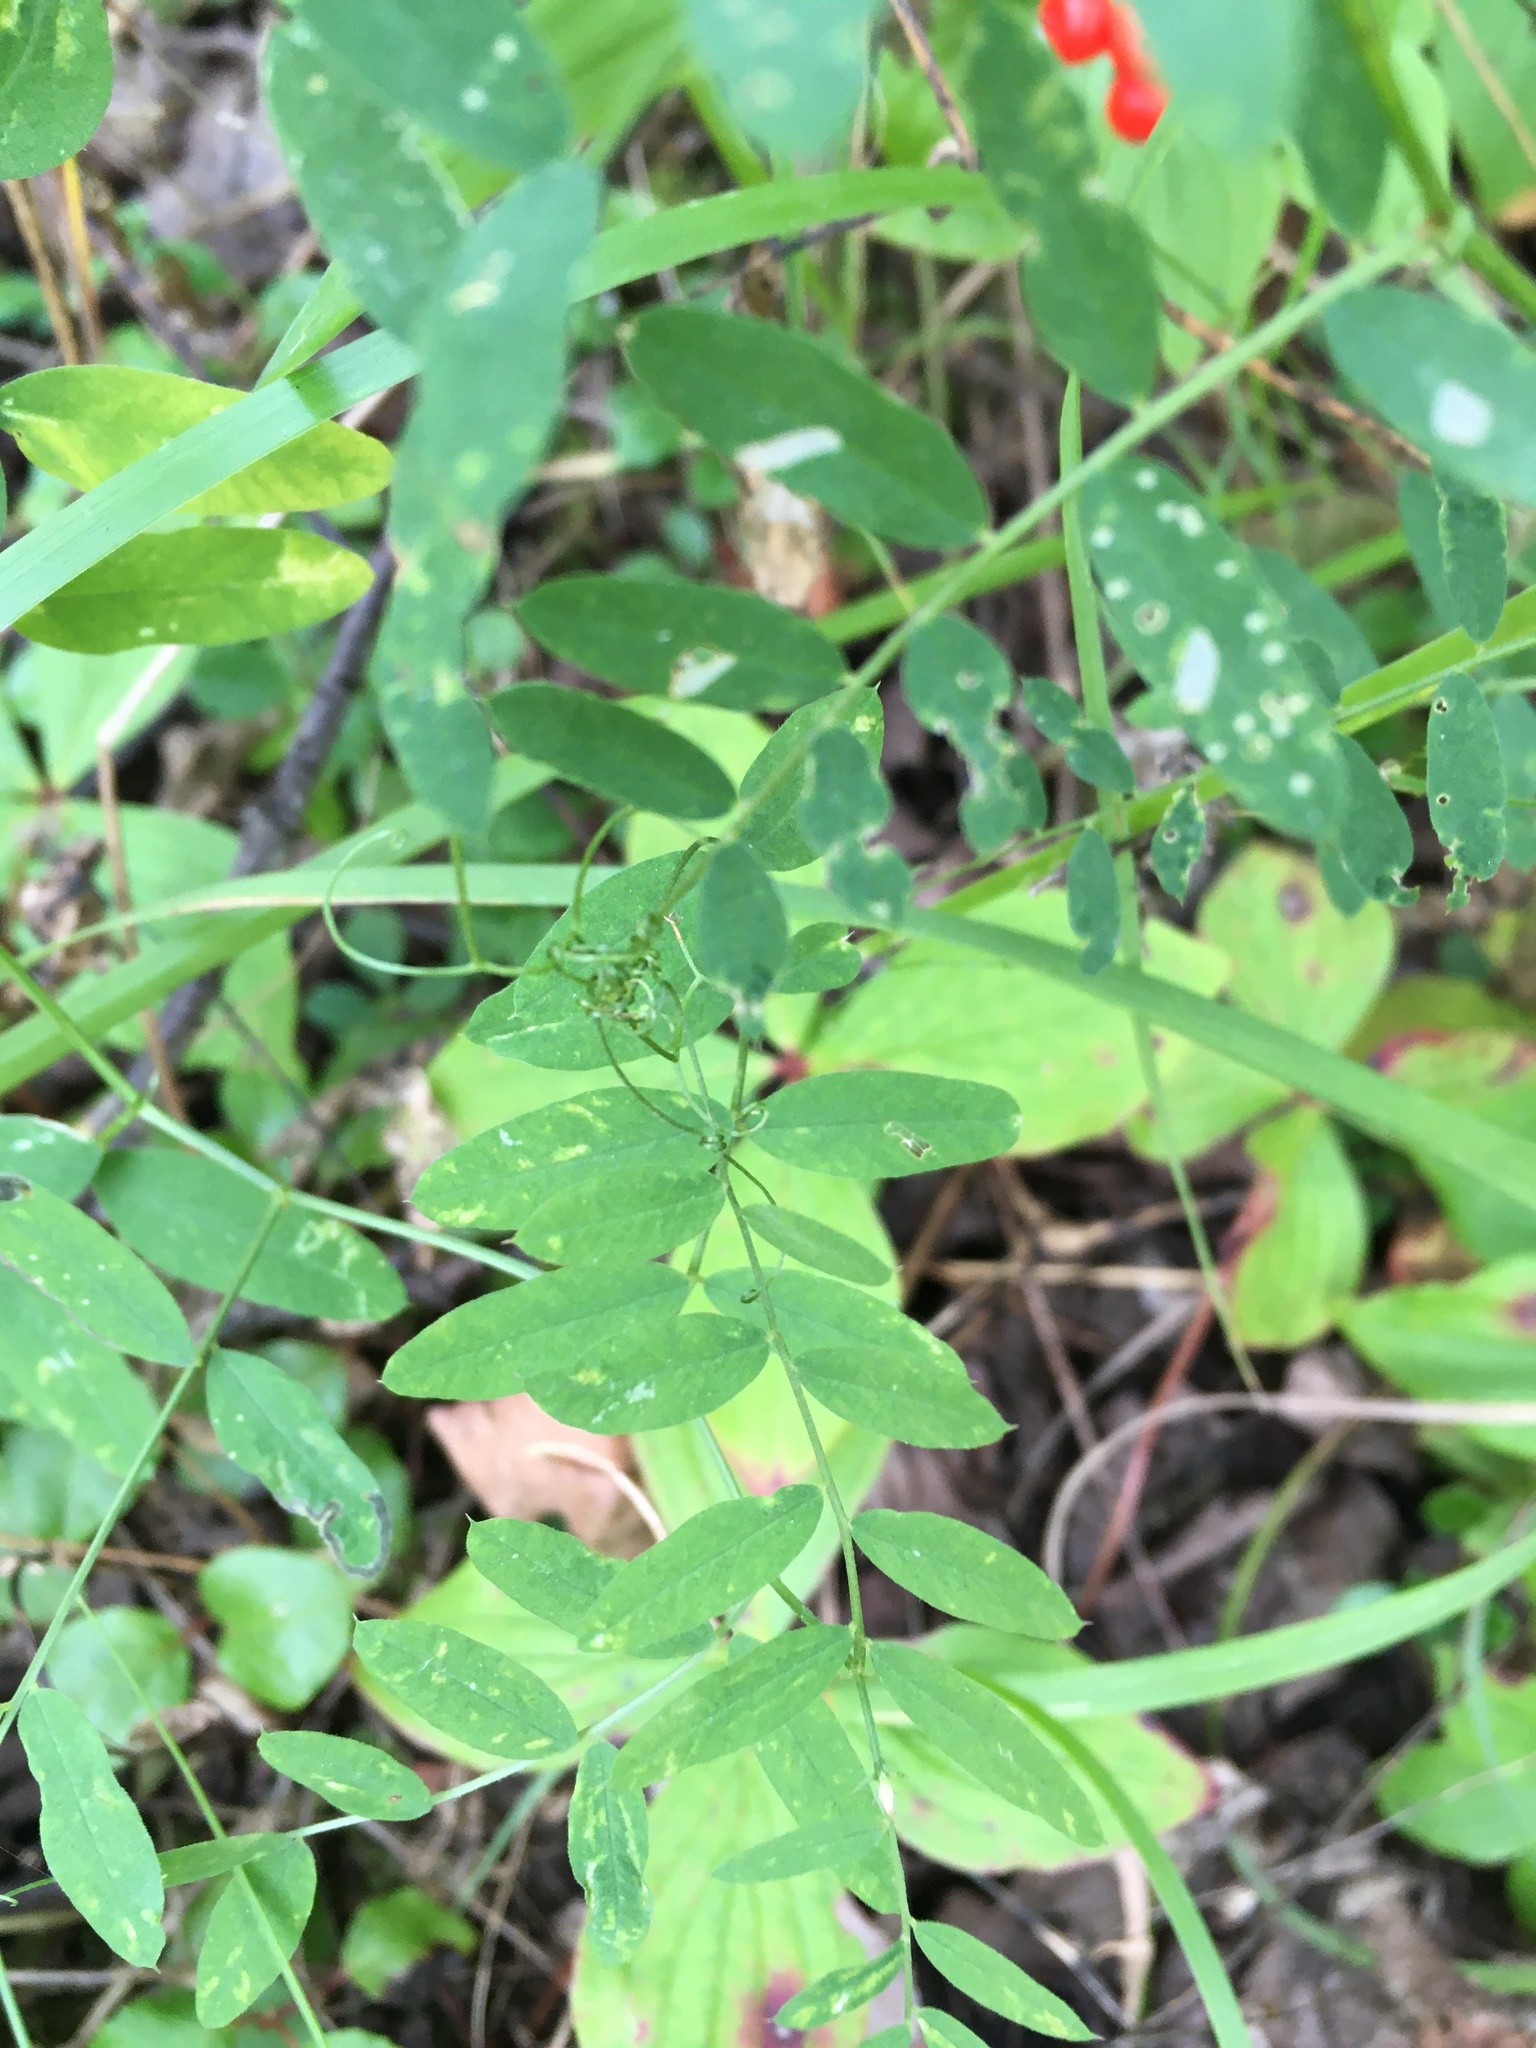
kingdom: Plantae
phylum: Tracheophyta
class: Magnoliopsida
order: Fabales
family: Fabaceae
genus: Vicia
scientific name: Vicia americana
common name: American vetch
